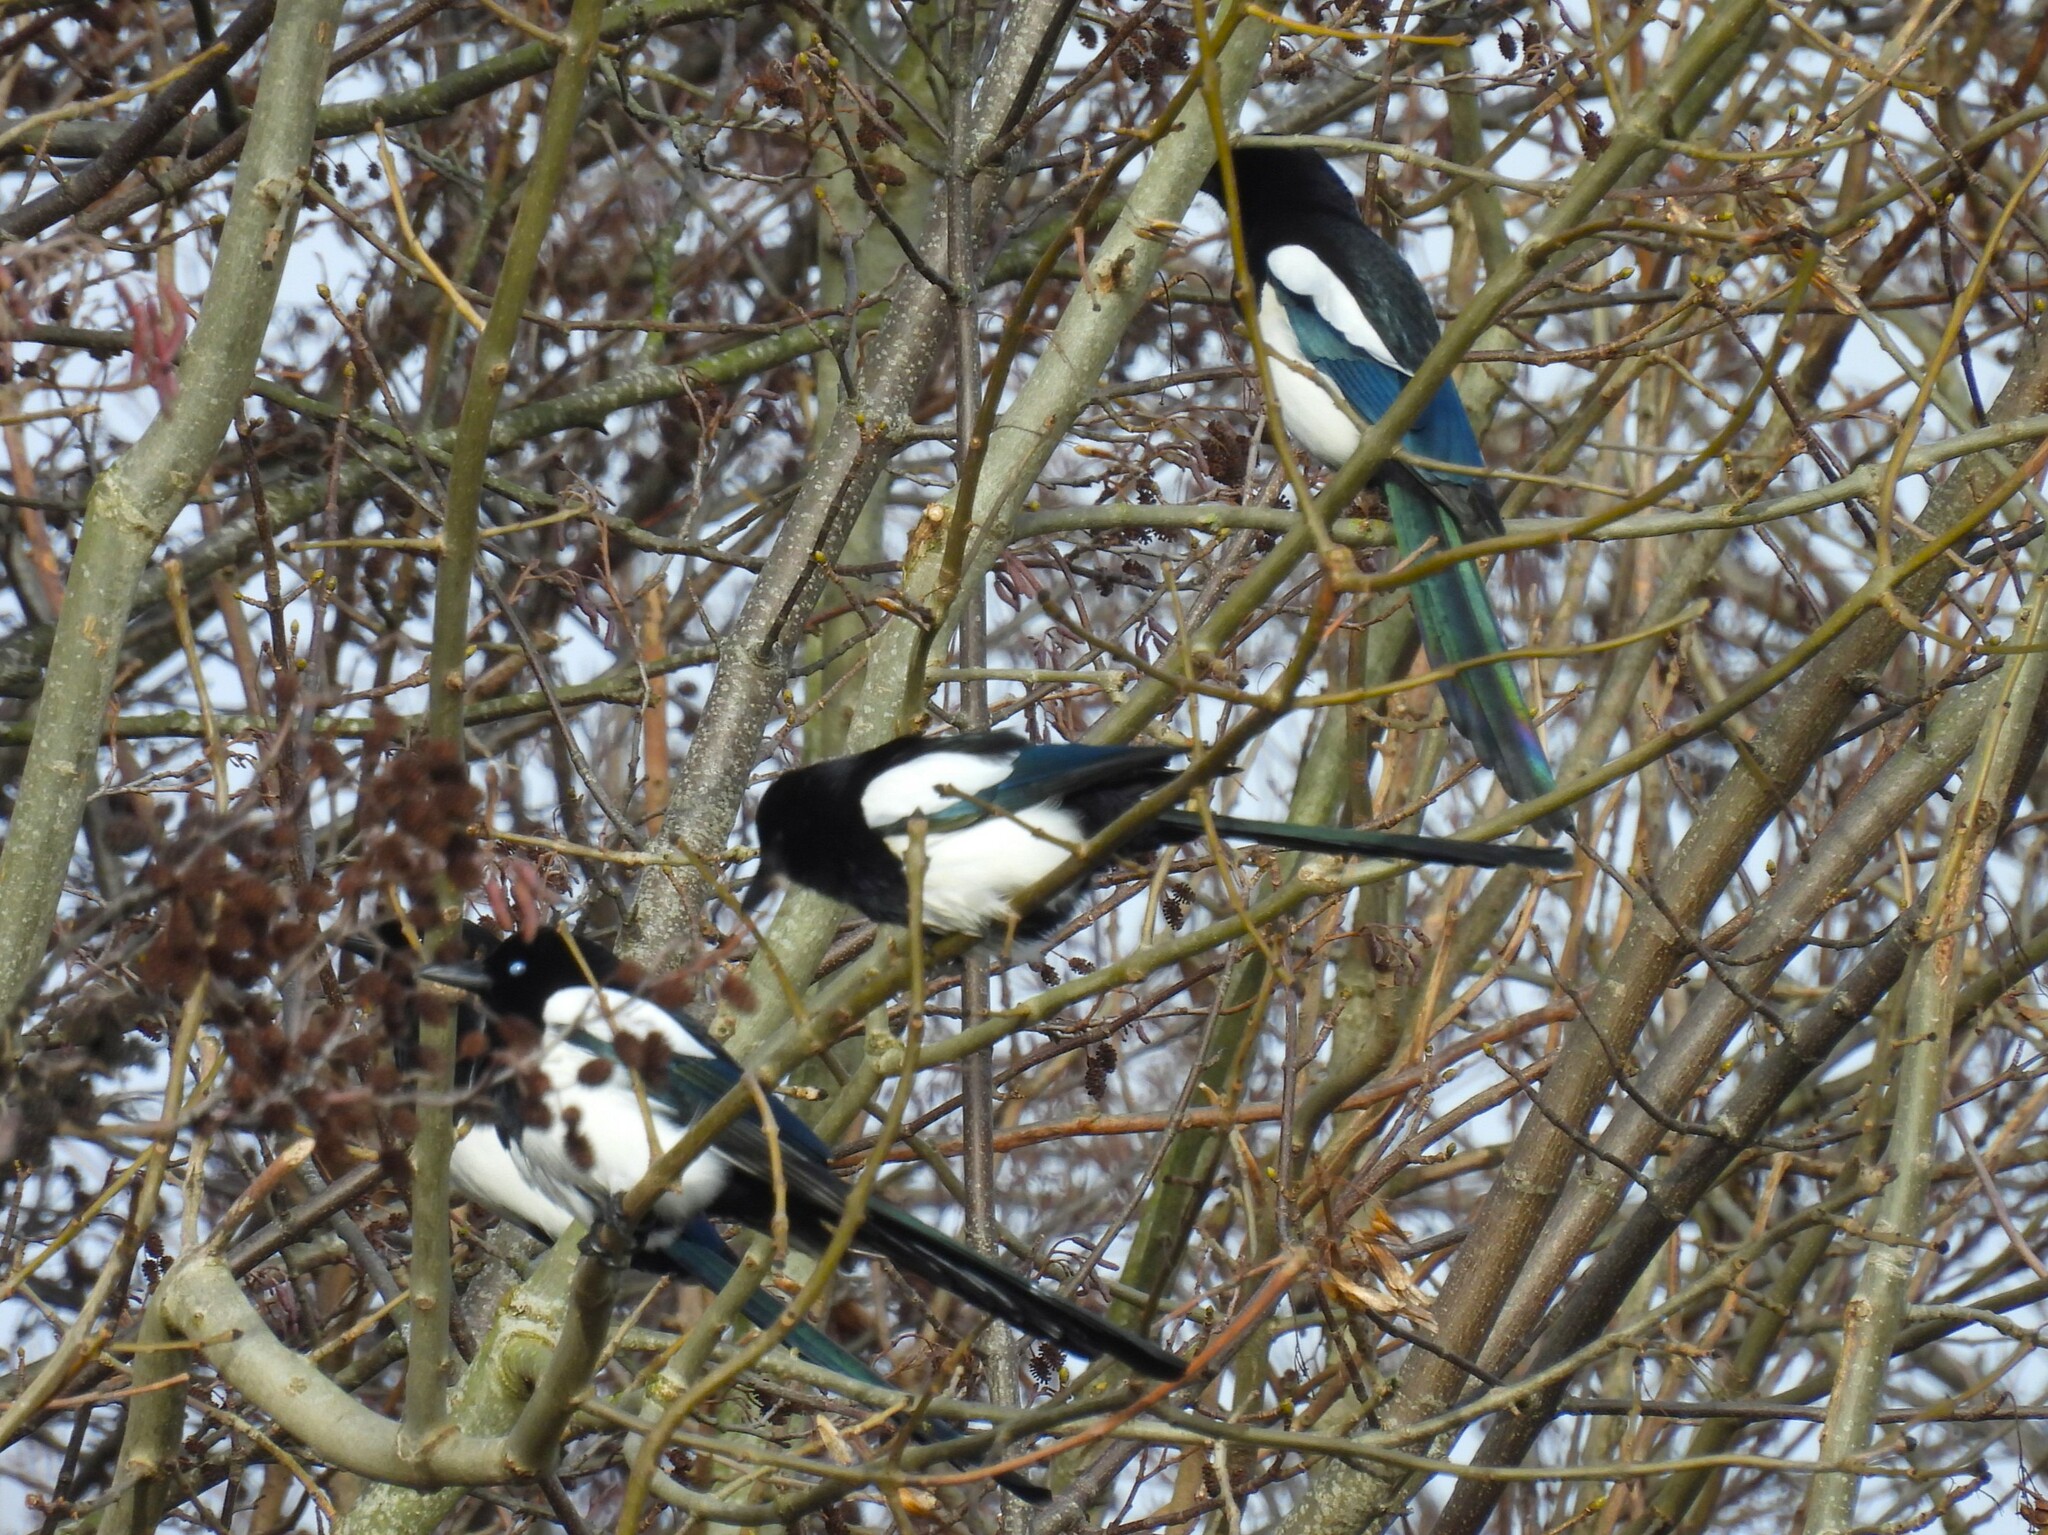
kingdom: Animalia
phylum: Chordata
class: Aves
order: Passeriformes
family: Corvidae
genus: Pica
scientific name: Pica pica
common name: Eurasian magpie
